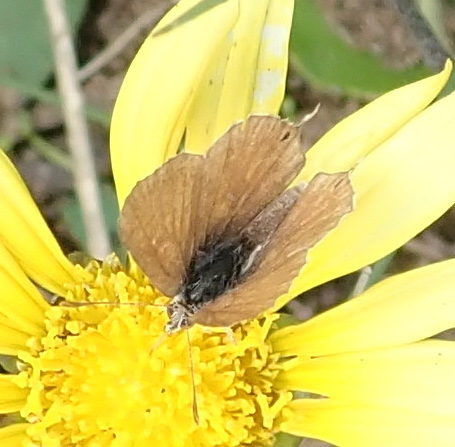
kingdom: Animalia
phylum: Arthropoda
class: Insecta
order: Lepidoptera
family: Lycaenidae
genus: Cacyreus
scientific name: Cacyreus fracta
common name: Water bronze
